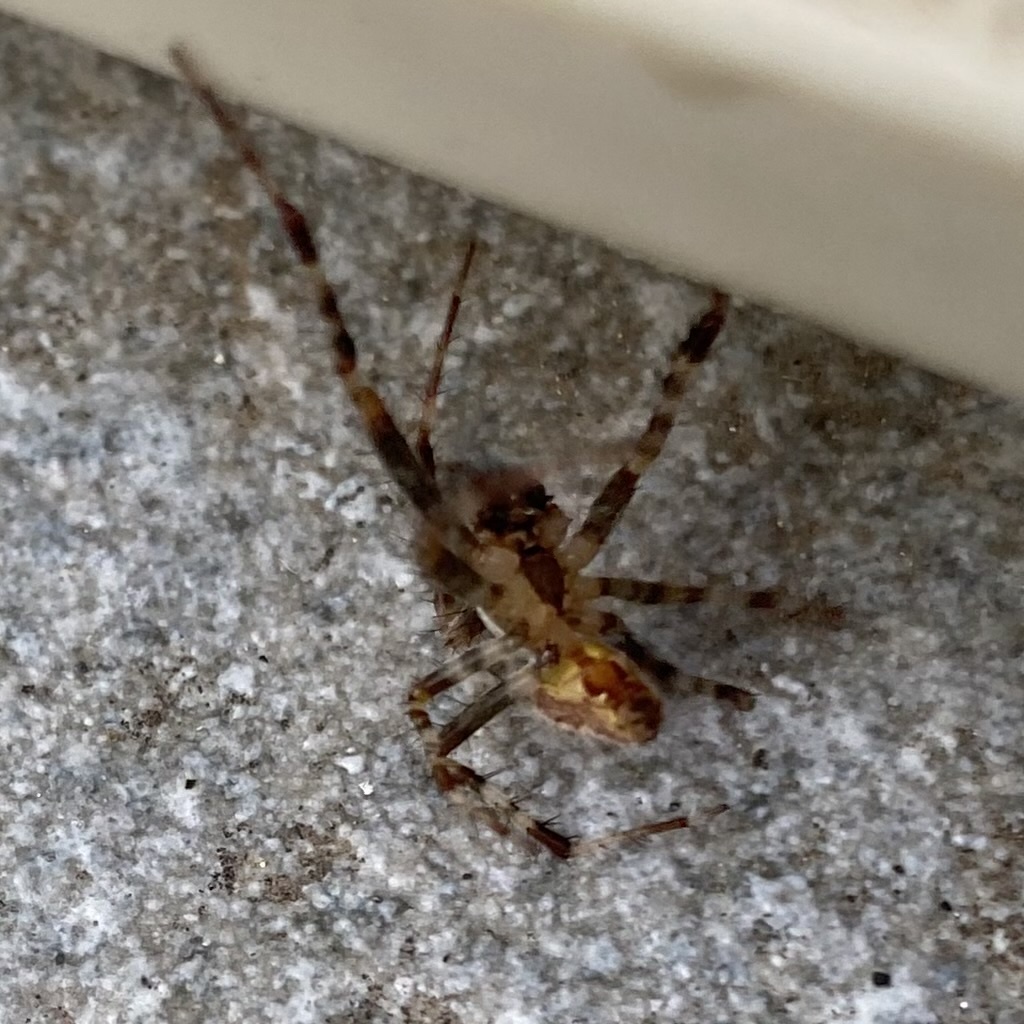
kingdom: Animalia
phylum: Arthropoda
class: Arachnida
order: Araneae
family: Araneidae
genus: Araneus
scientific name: Araneus diadematus
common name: Cross orbweaver
